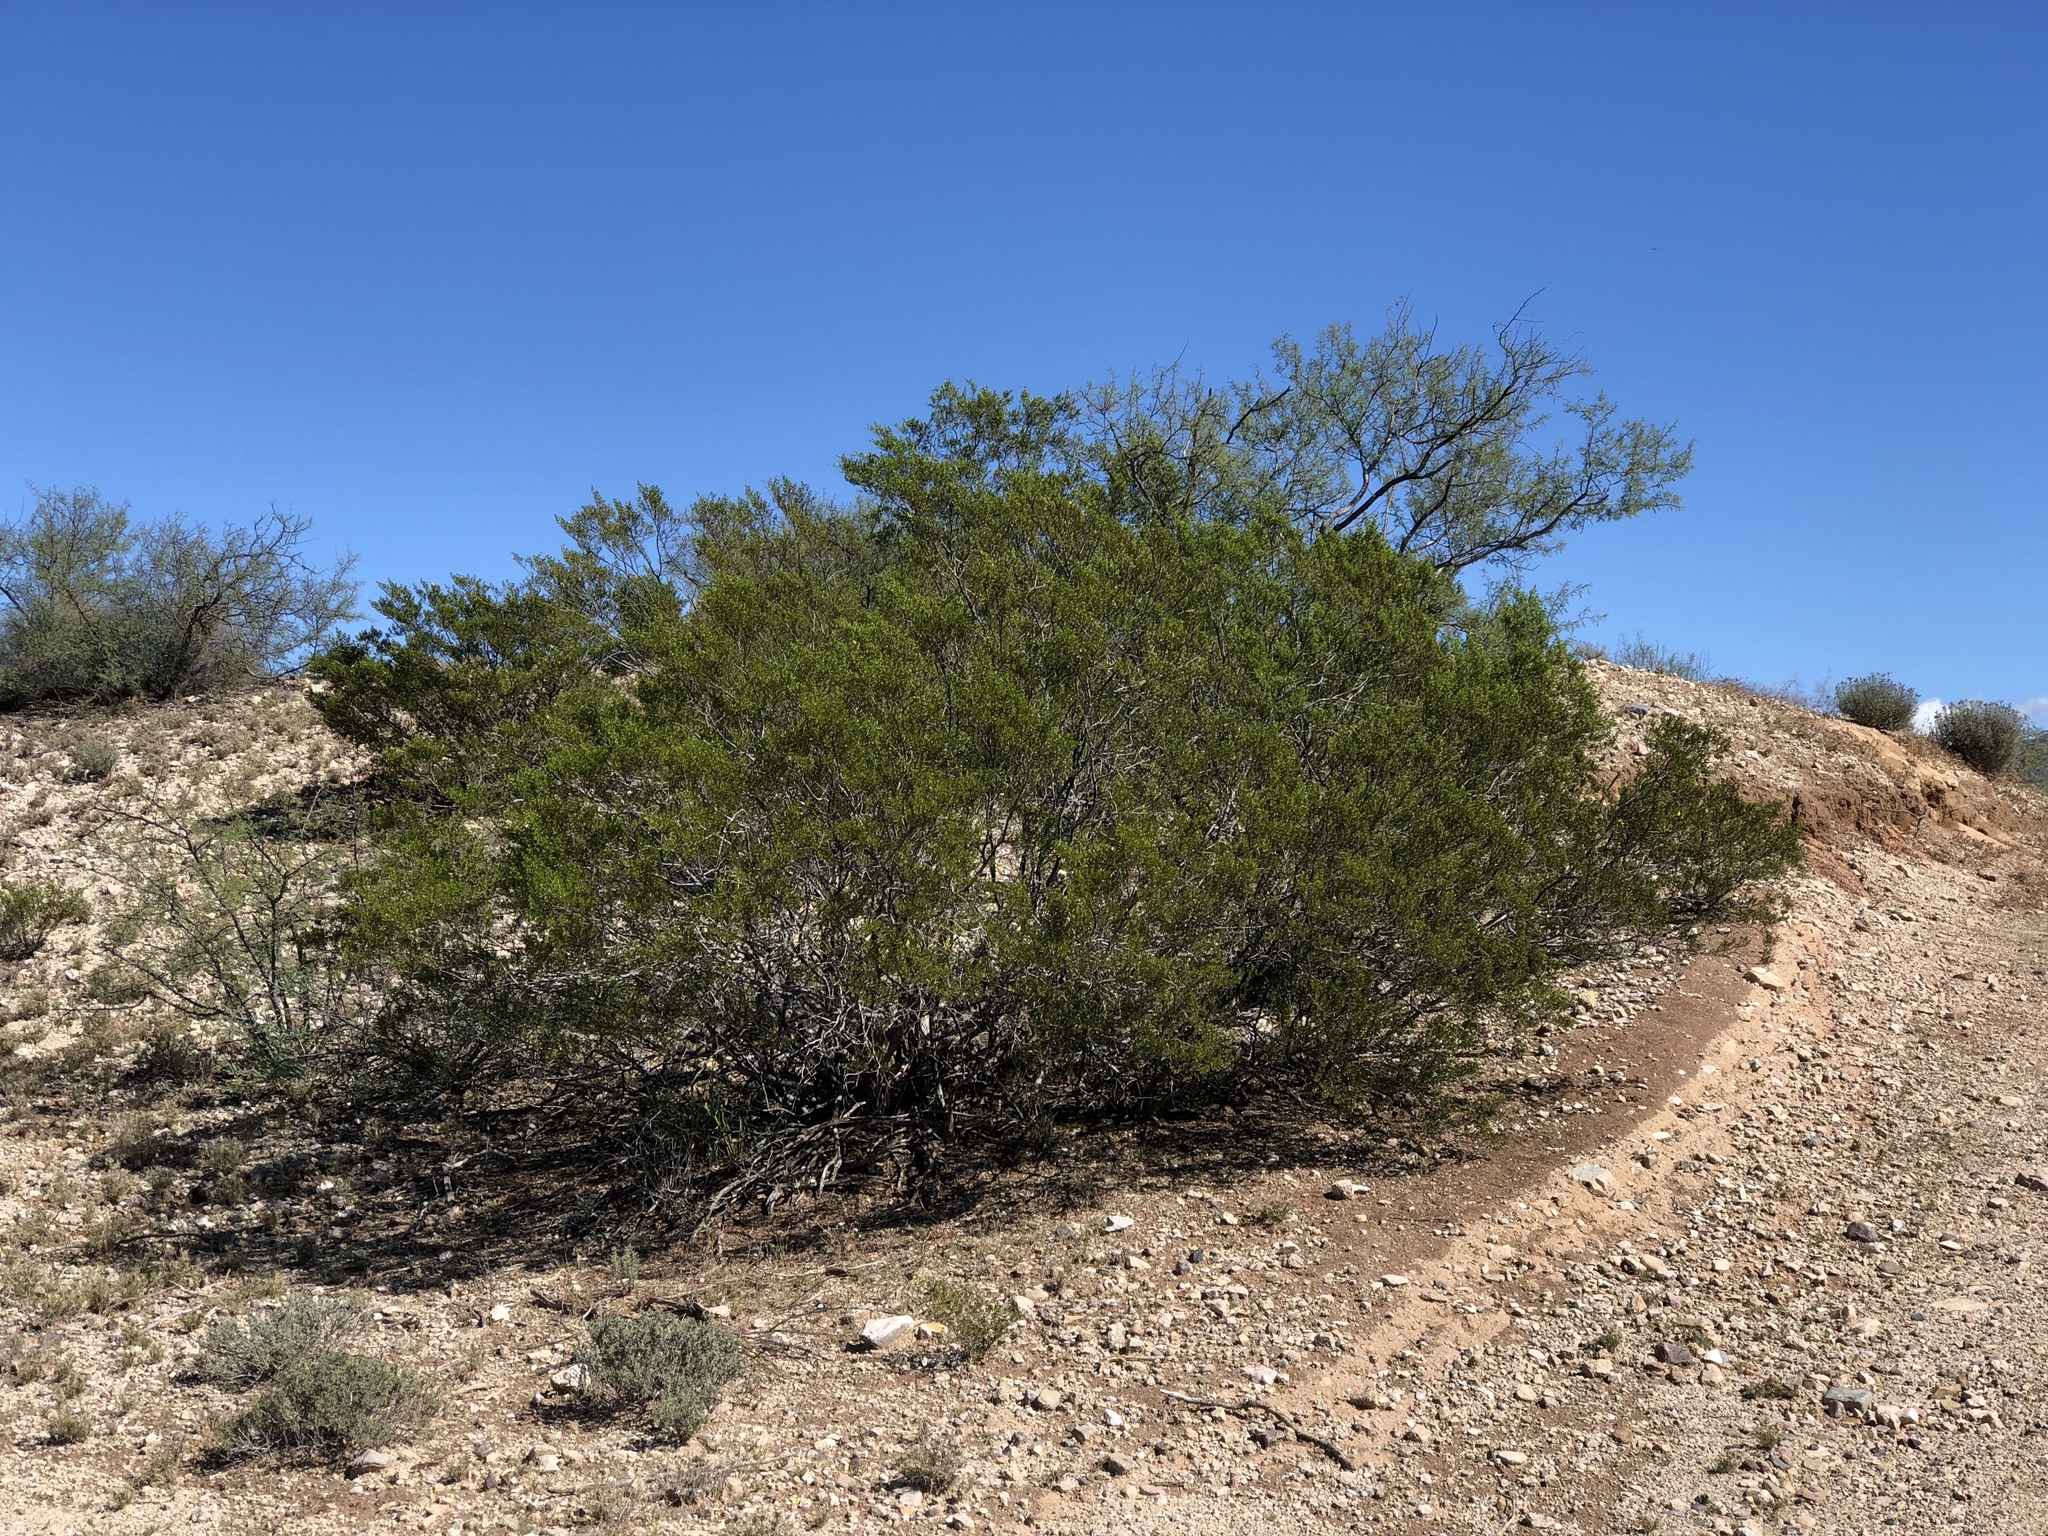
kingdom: Plantae
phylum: Tracheophyta
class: Magnoliopsida
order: Zygophyllales
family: Zygophyllaceae
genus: Larrea
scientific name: Larrea tridentata
